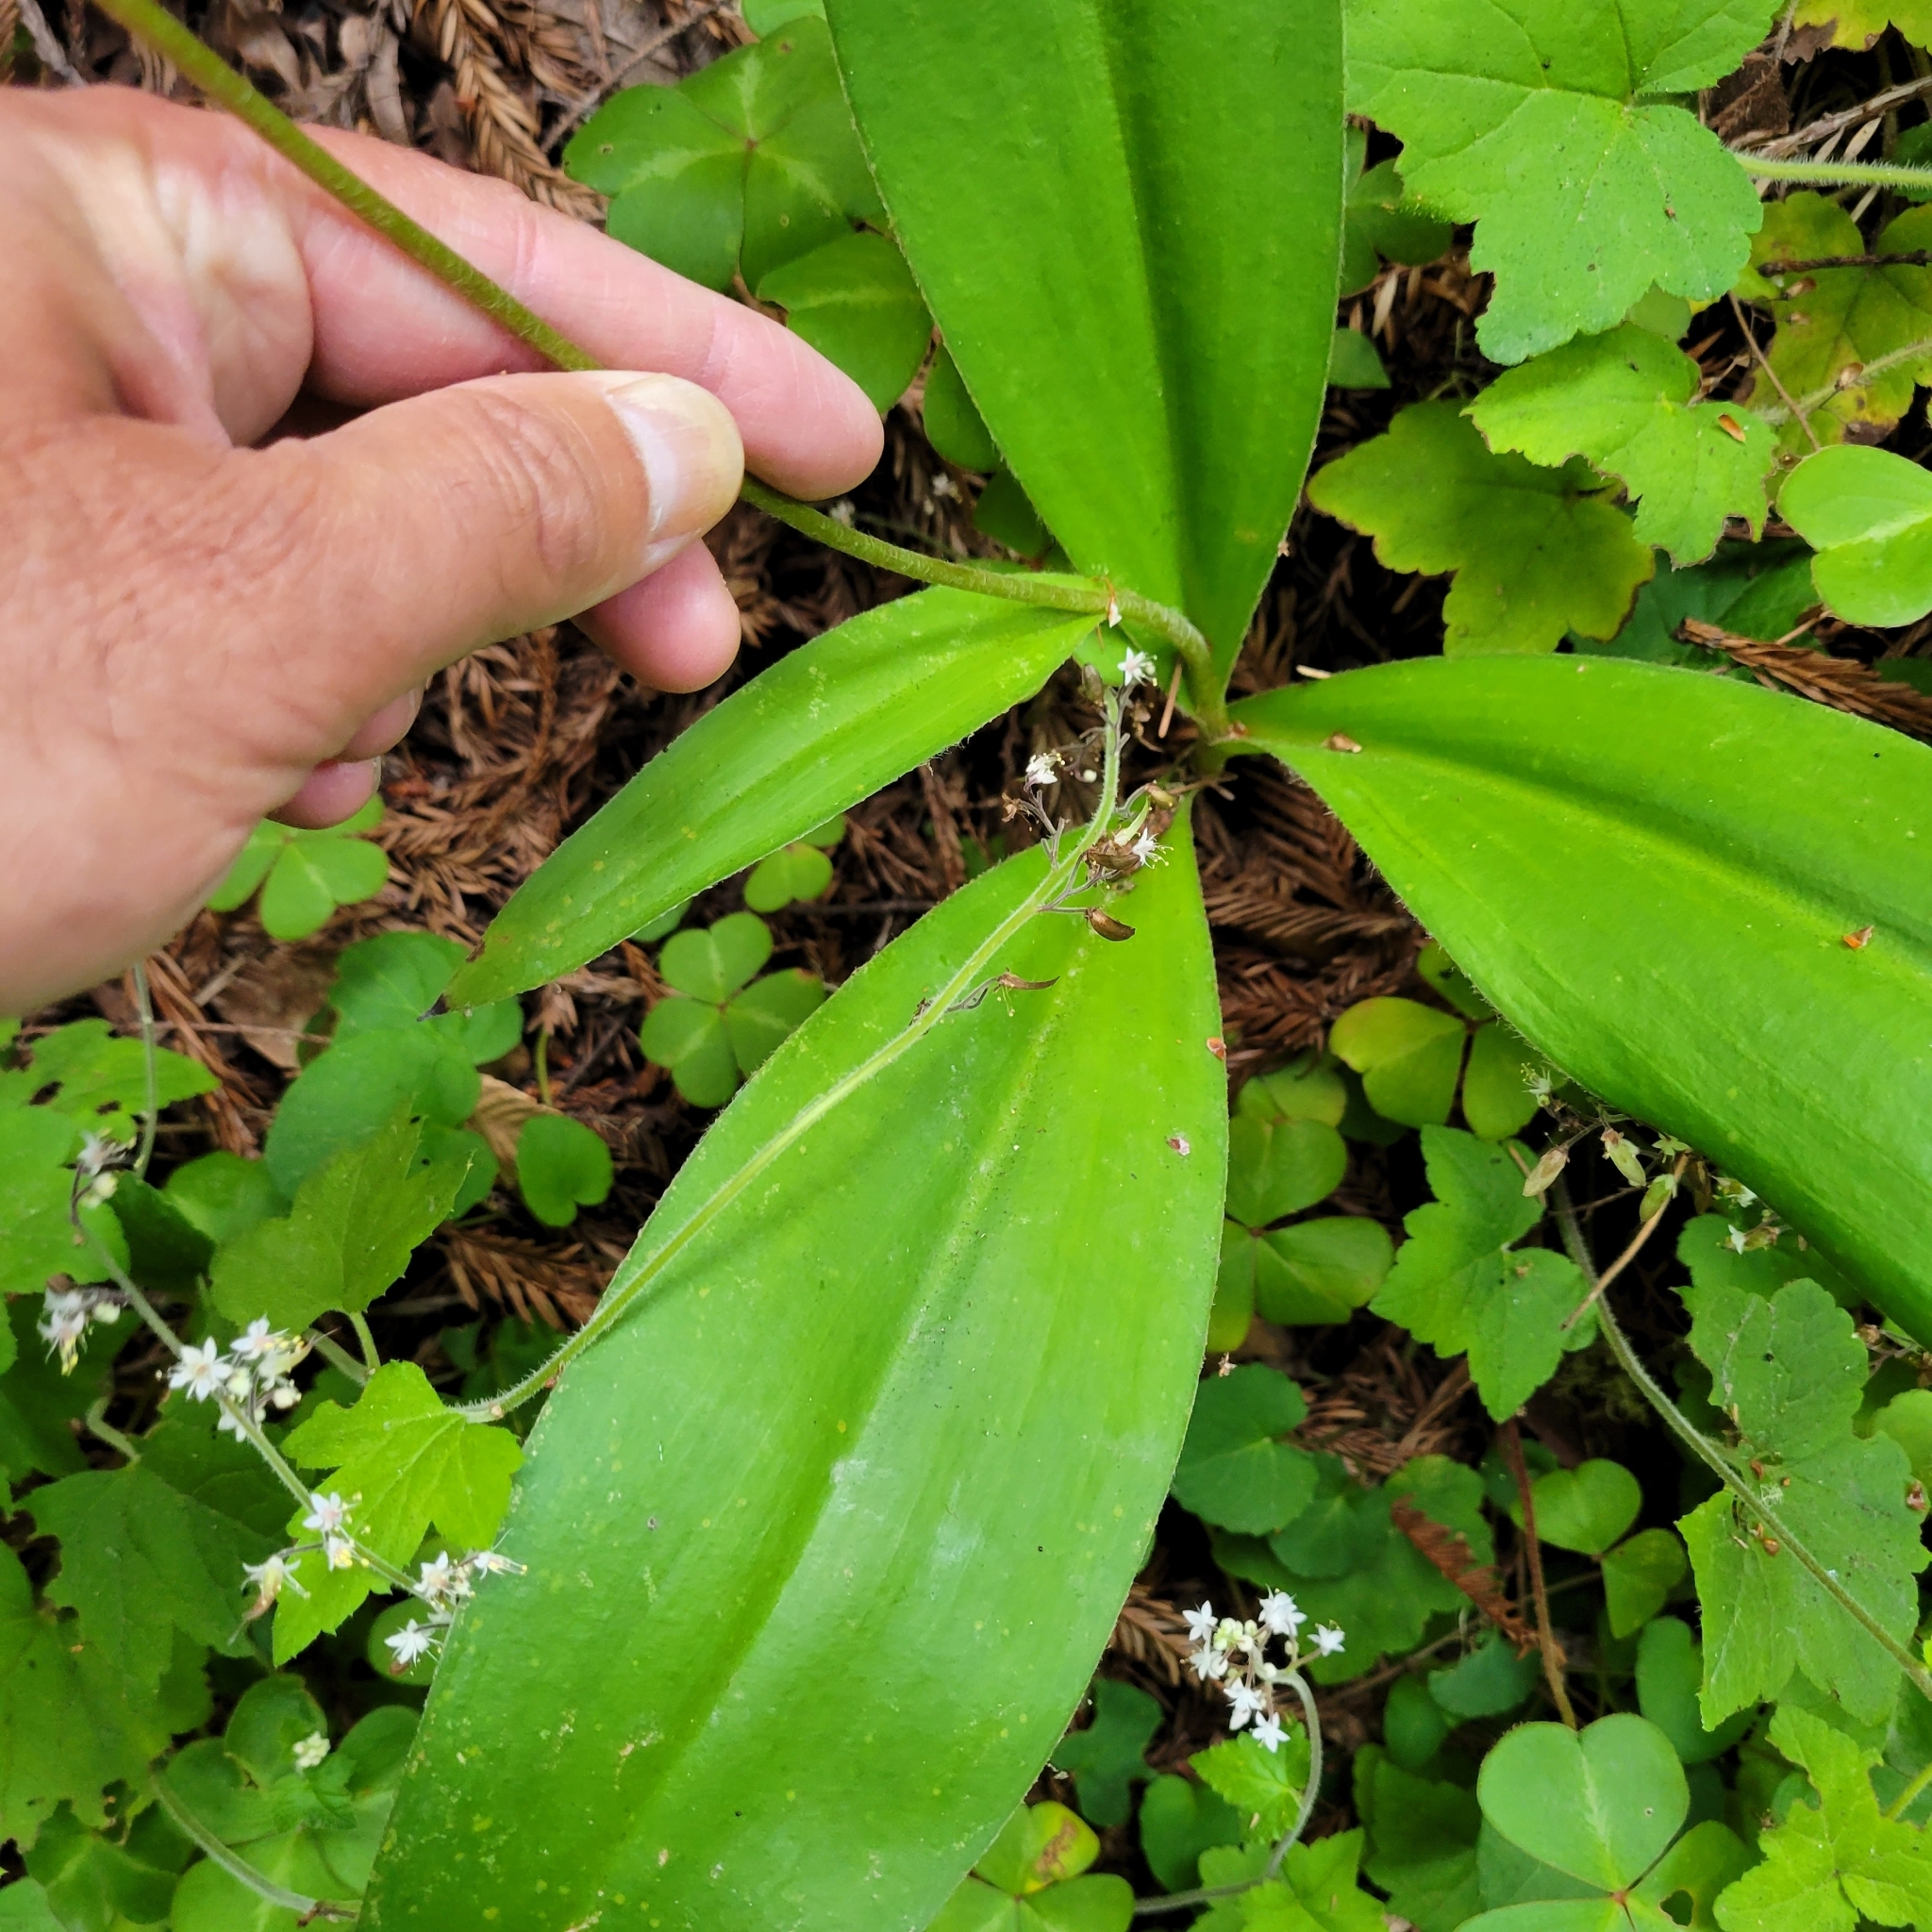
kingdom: Plantae
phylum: Tracheophyta
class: Liliopsida
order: Liliales
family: Liliaceae
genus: Clintonia
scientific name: Clintonia andrewsiana
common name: Red clintonia
